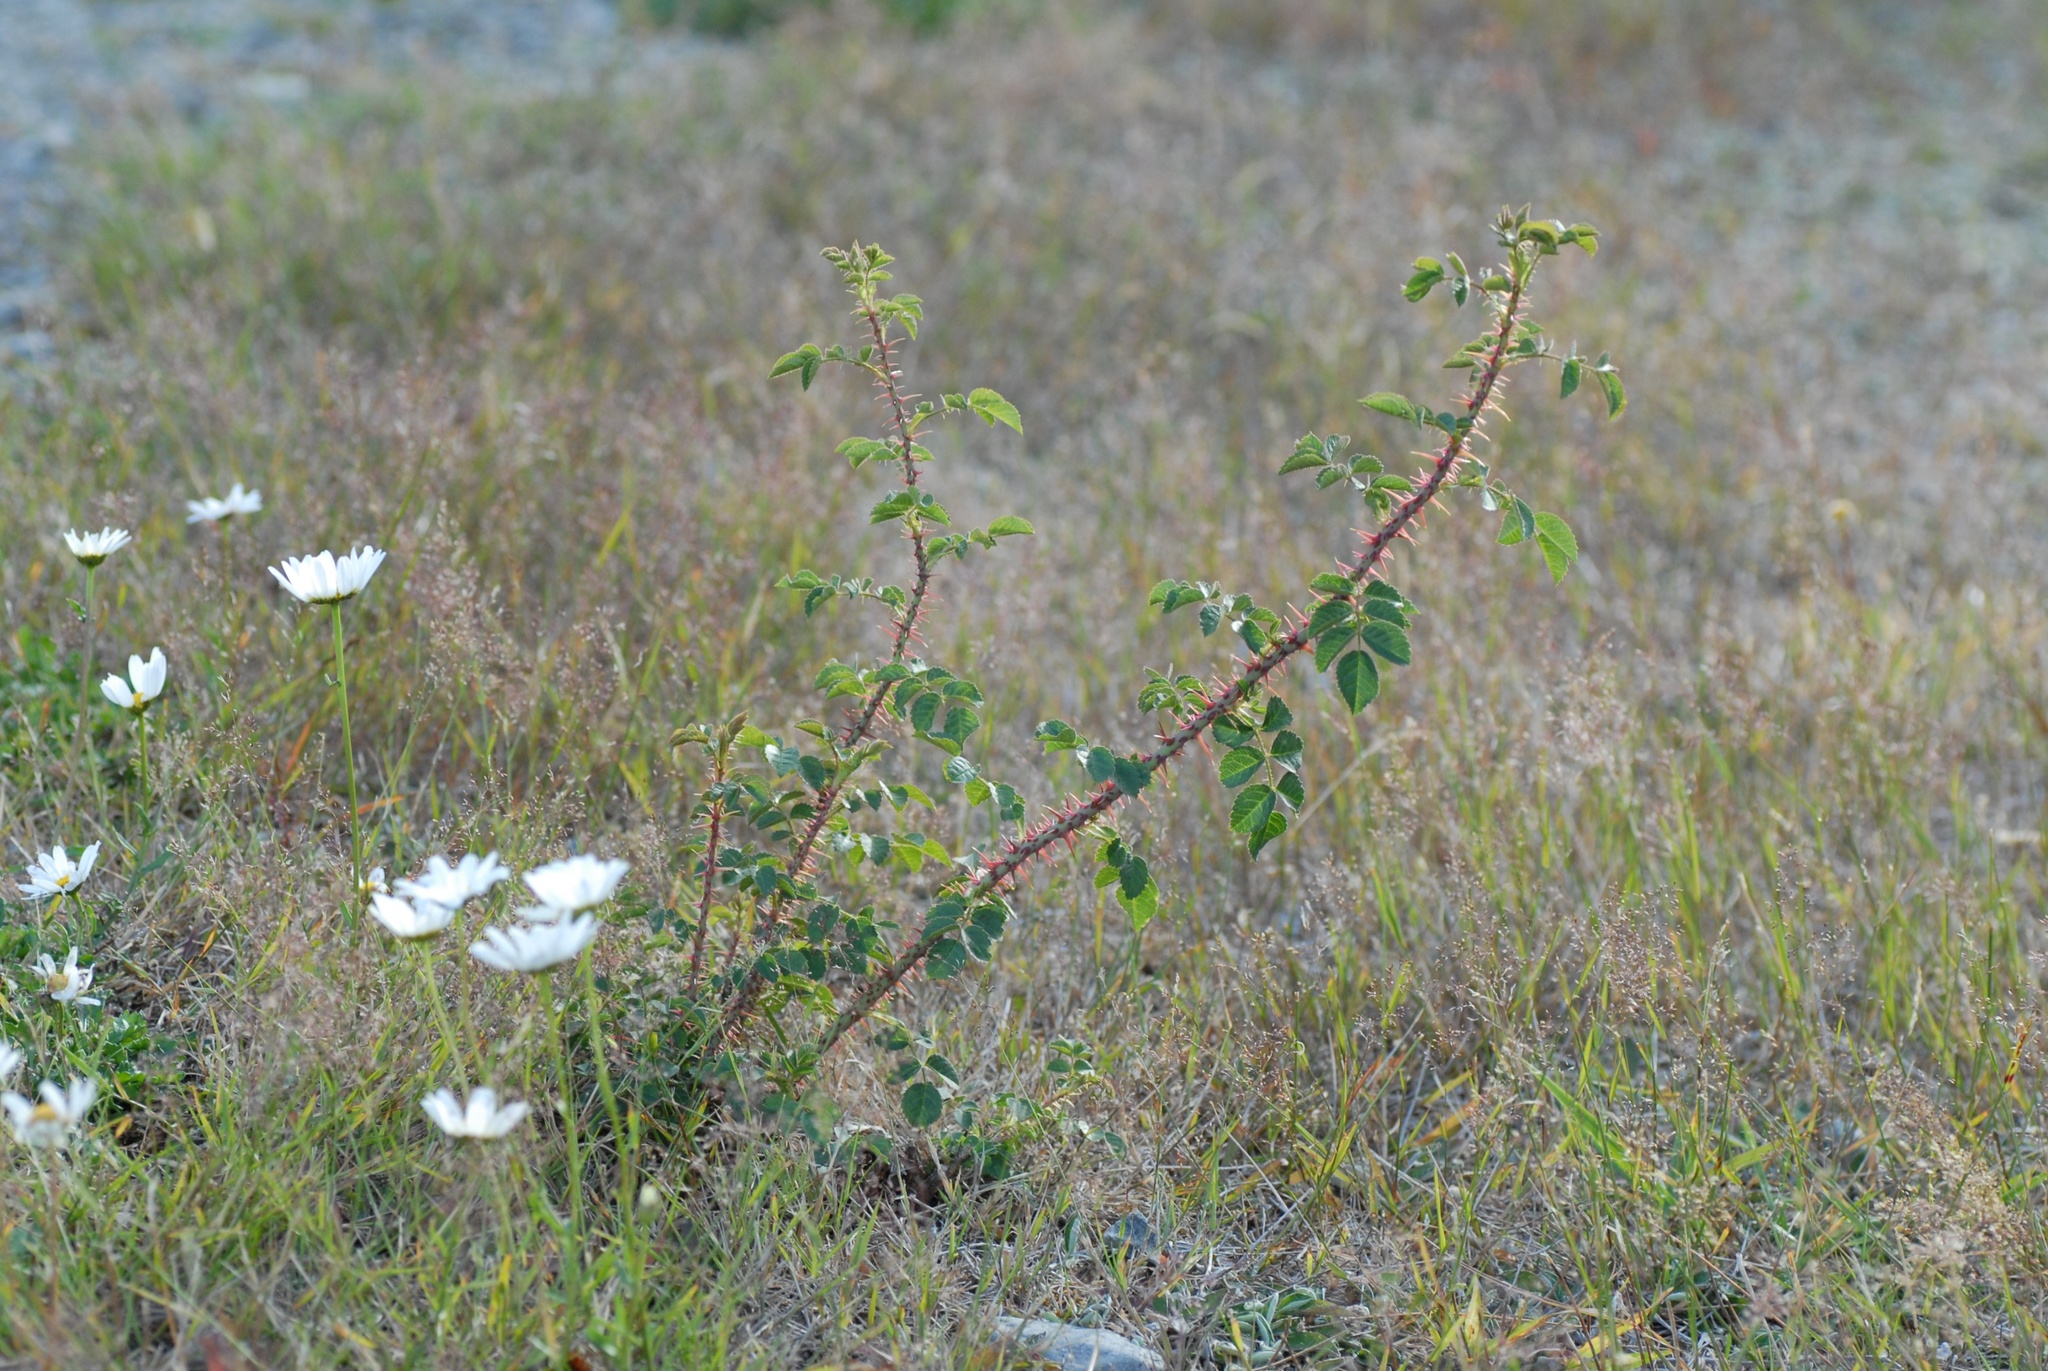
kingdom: Plantae
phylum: Tracheophyta
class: Magnoliopsida
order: Rosales
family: Rosaceae
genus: Rosa
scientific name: Rosa rubiginosa
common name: Sweet-briar
